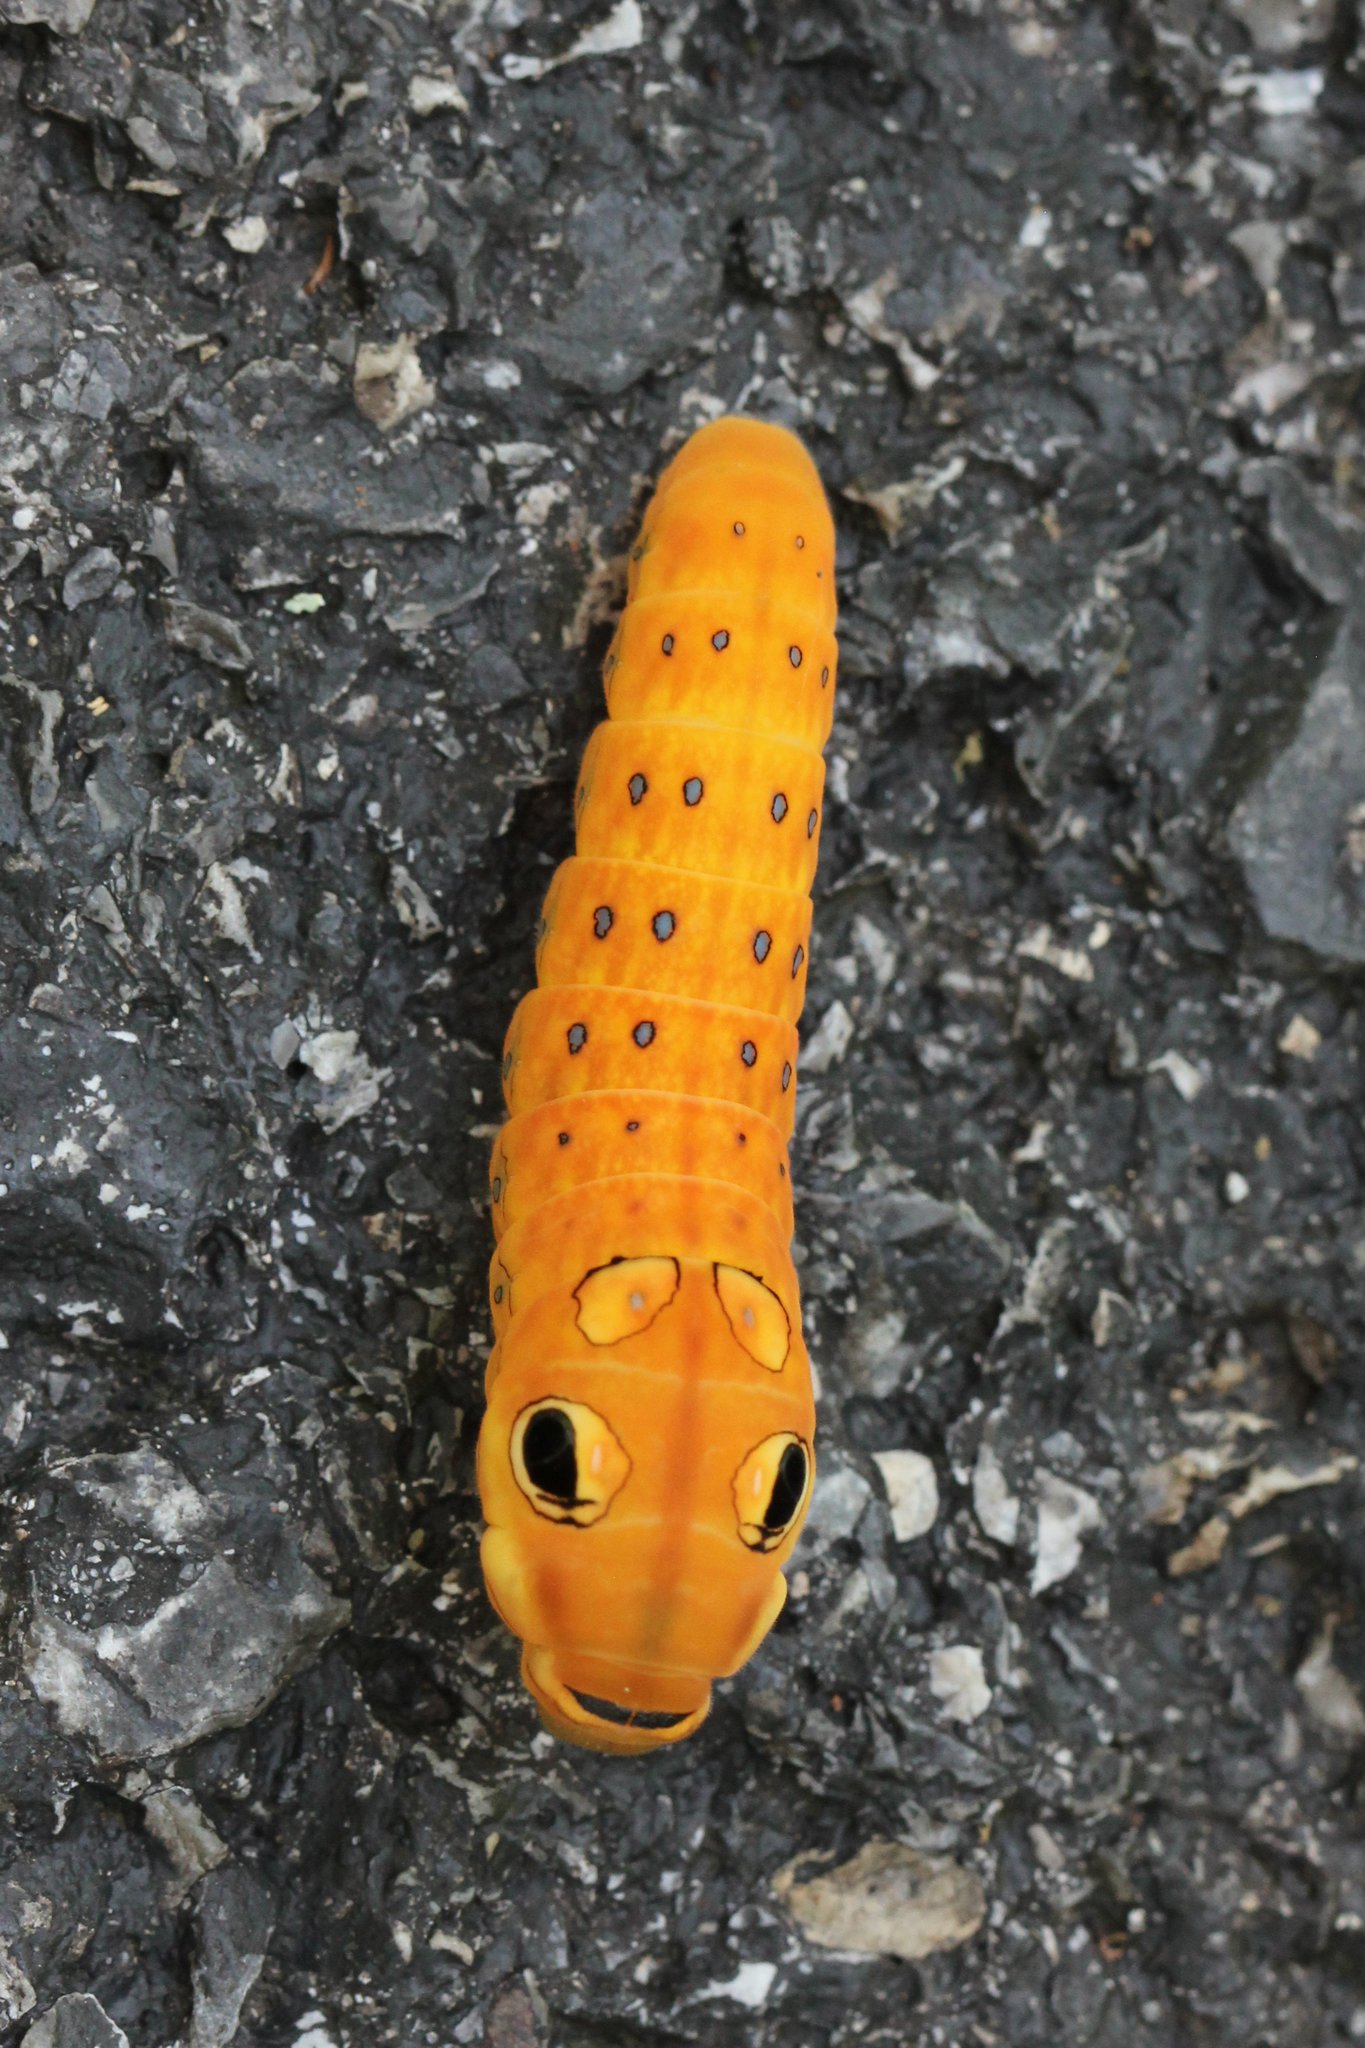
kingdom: Animalia
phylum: Arthropoda
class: Insecta
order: Lepidoptera
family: Papilionidae
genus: Papilio
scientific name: Papilio troilus
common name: Spicebush swallowtail
